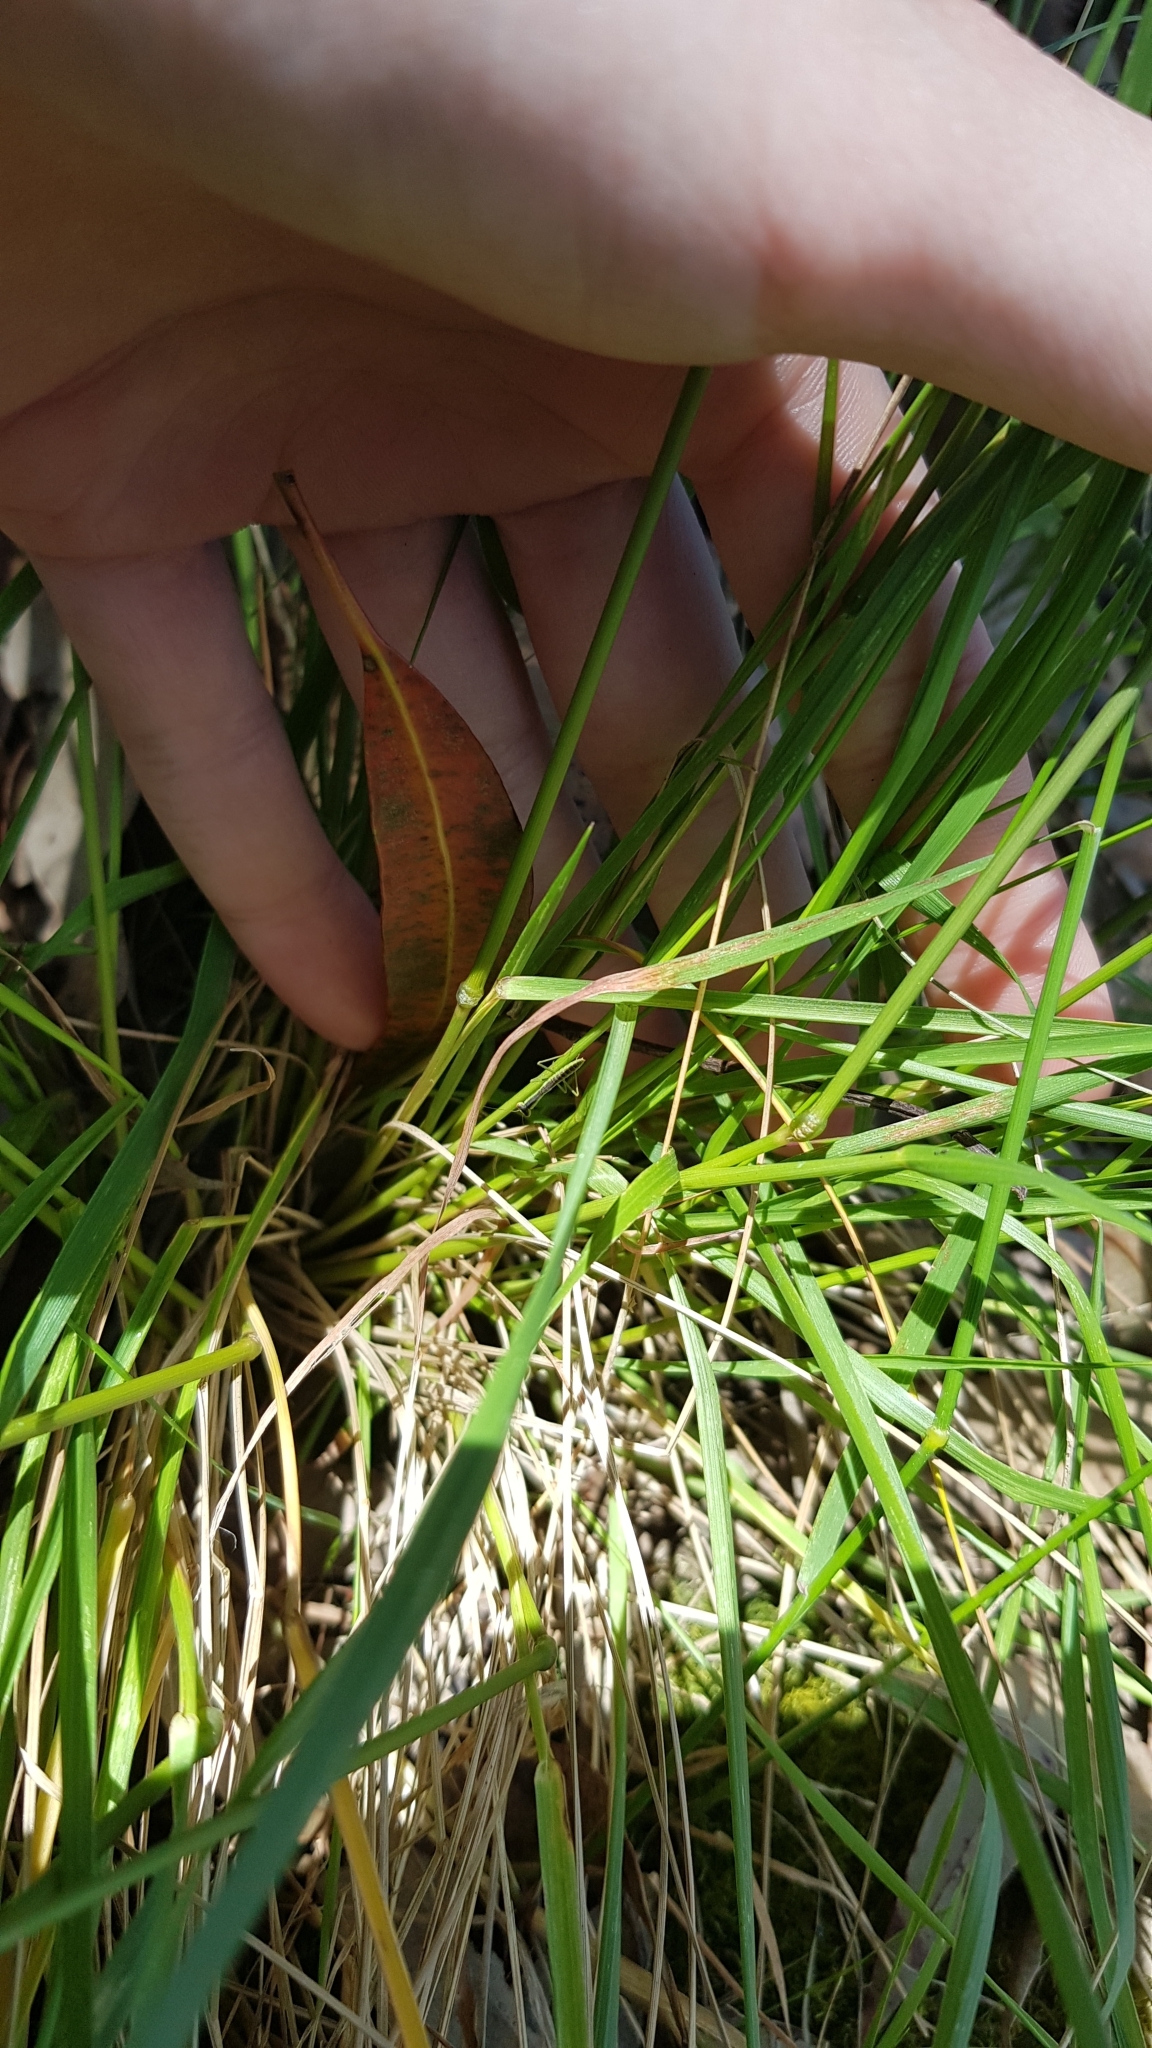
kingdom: Plantae
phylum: Tracheophyta
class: Liliopsida
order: Poales
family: Poaceae
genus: Chascolytrum
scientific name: Chascolytrum subaristatum
